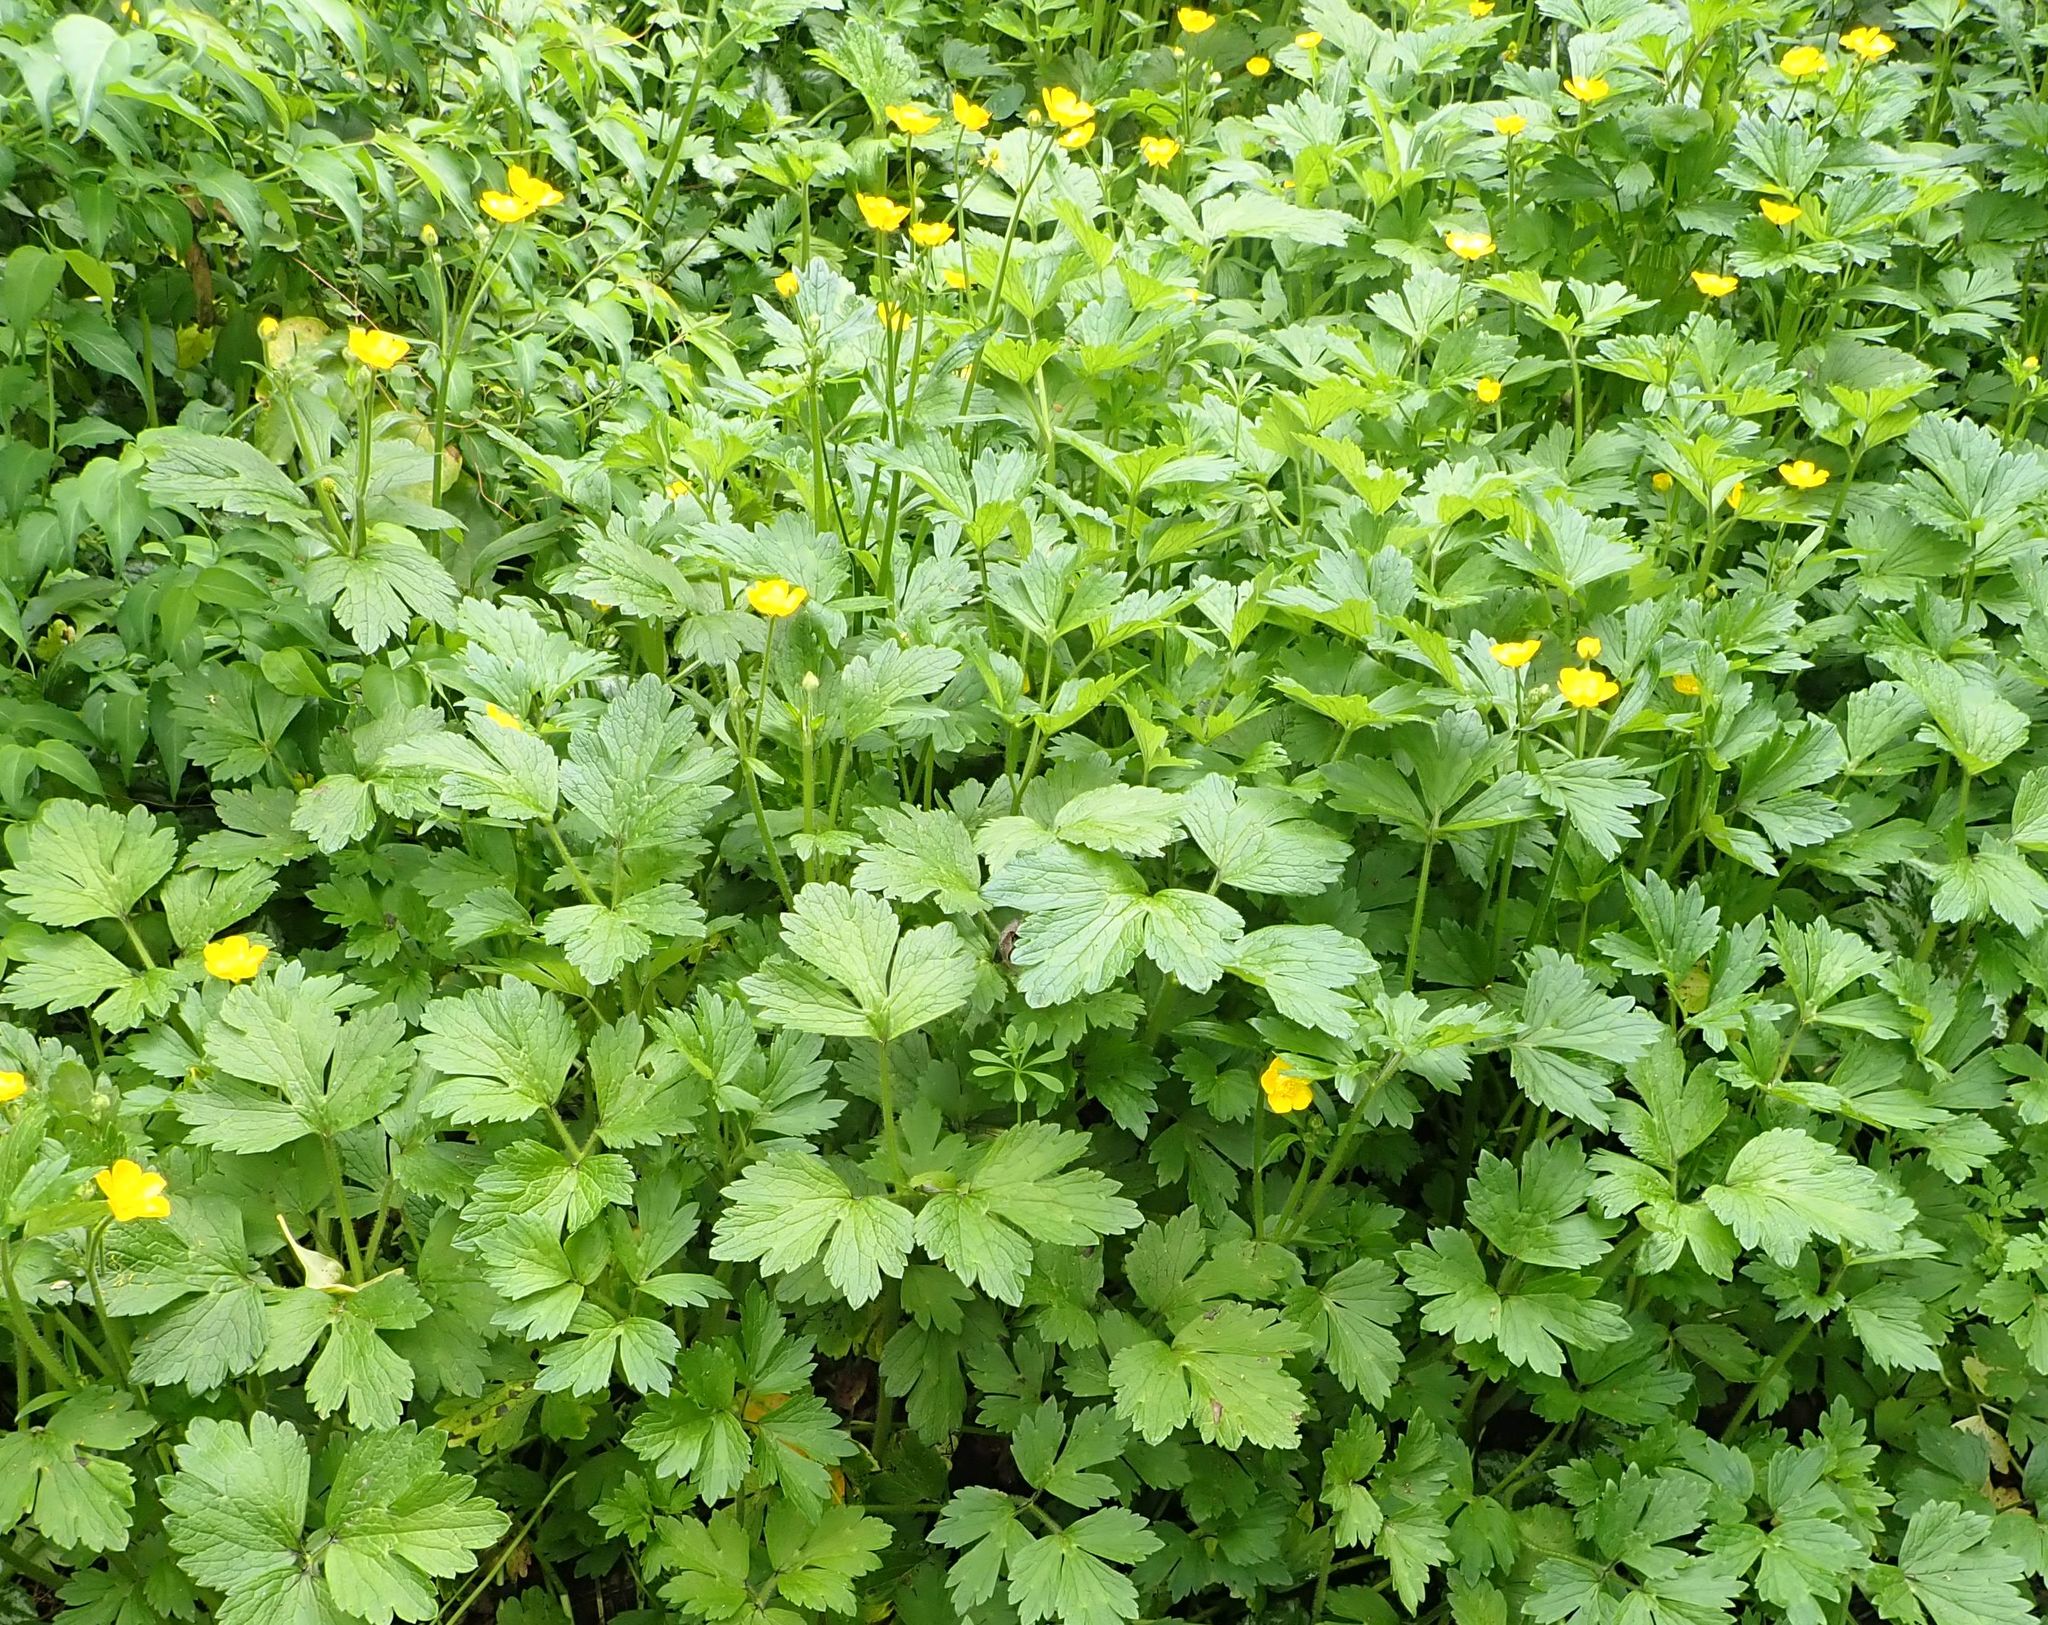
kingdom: Plantae
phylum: Tracheophyta
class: Magnoliopsida
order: Ranunculales
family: Ranunculaceae
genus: Ranunculus
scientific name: Ranunculus repens
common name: Creeping buttercup
